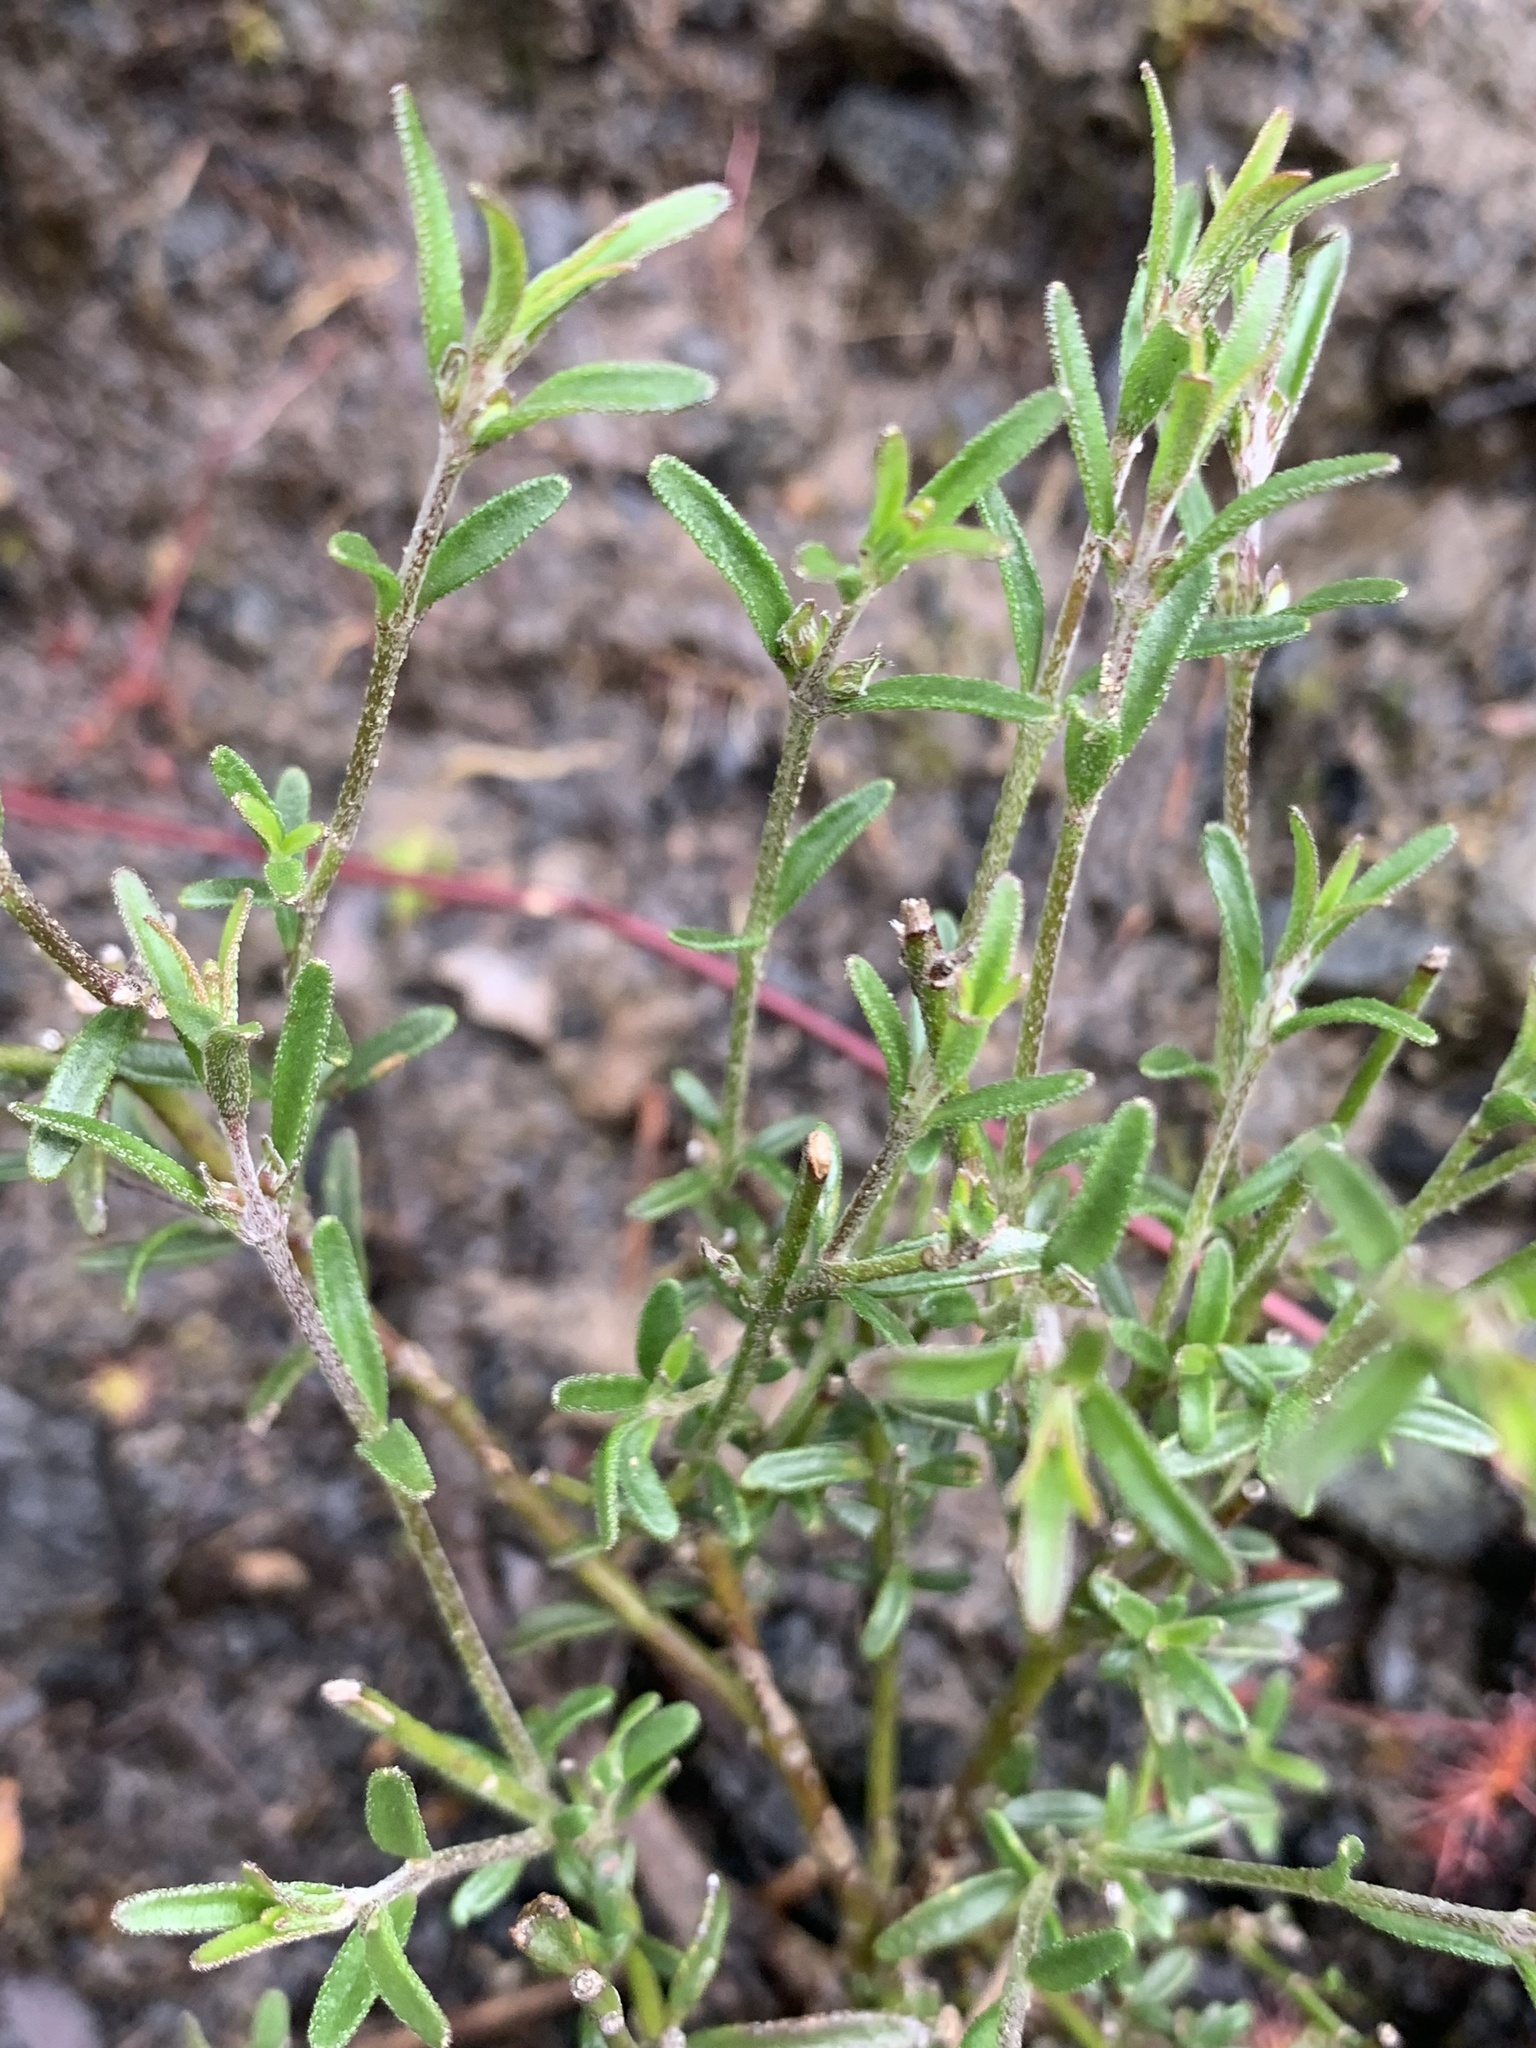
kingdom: Plantae
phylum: Tracheophyta
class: Magnoliopsida
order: Lamiales
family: Lamiaceae
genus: Prostanthera
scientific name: Prostanthera saxicola
